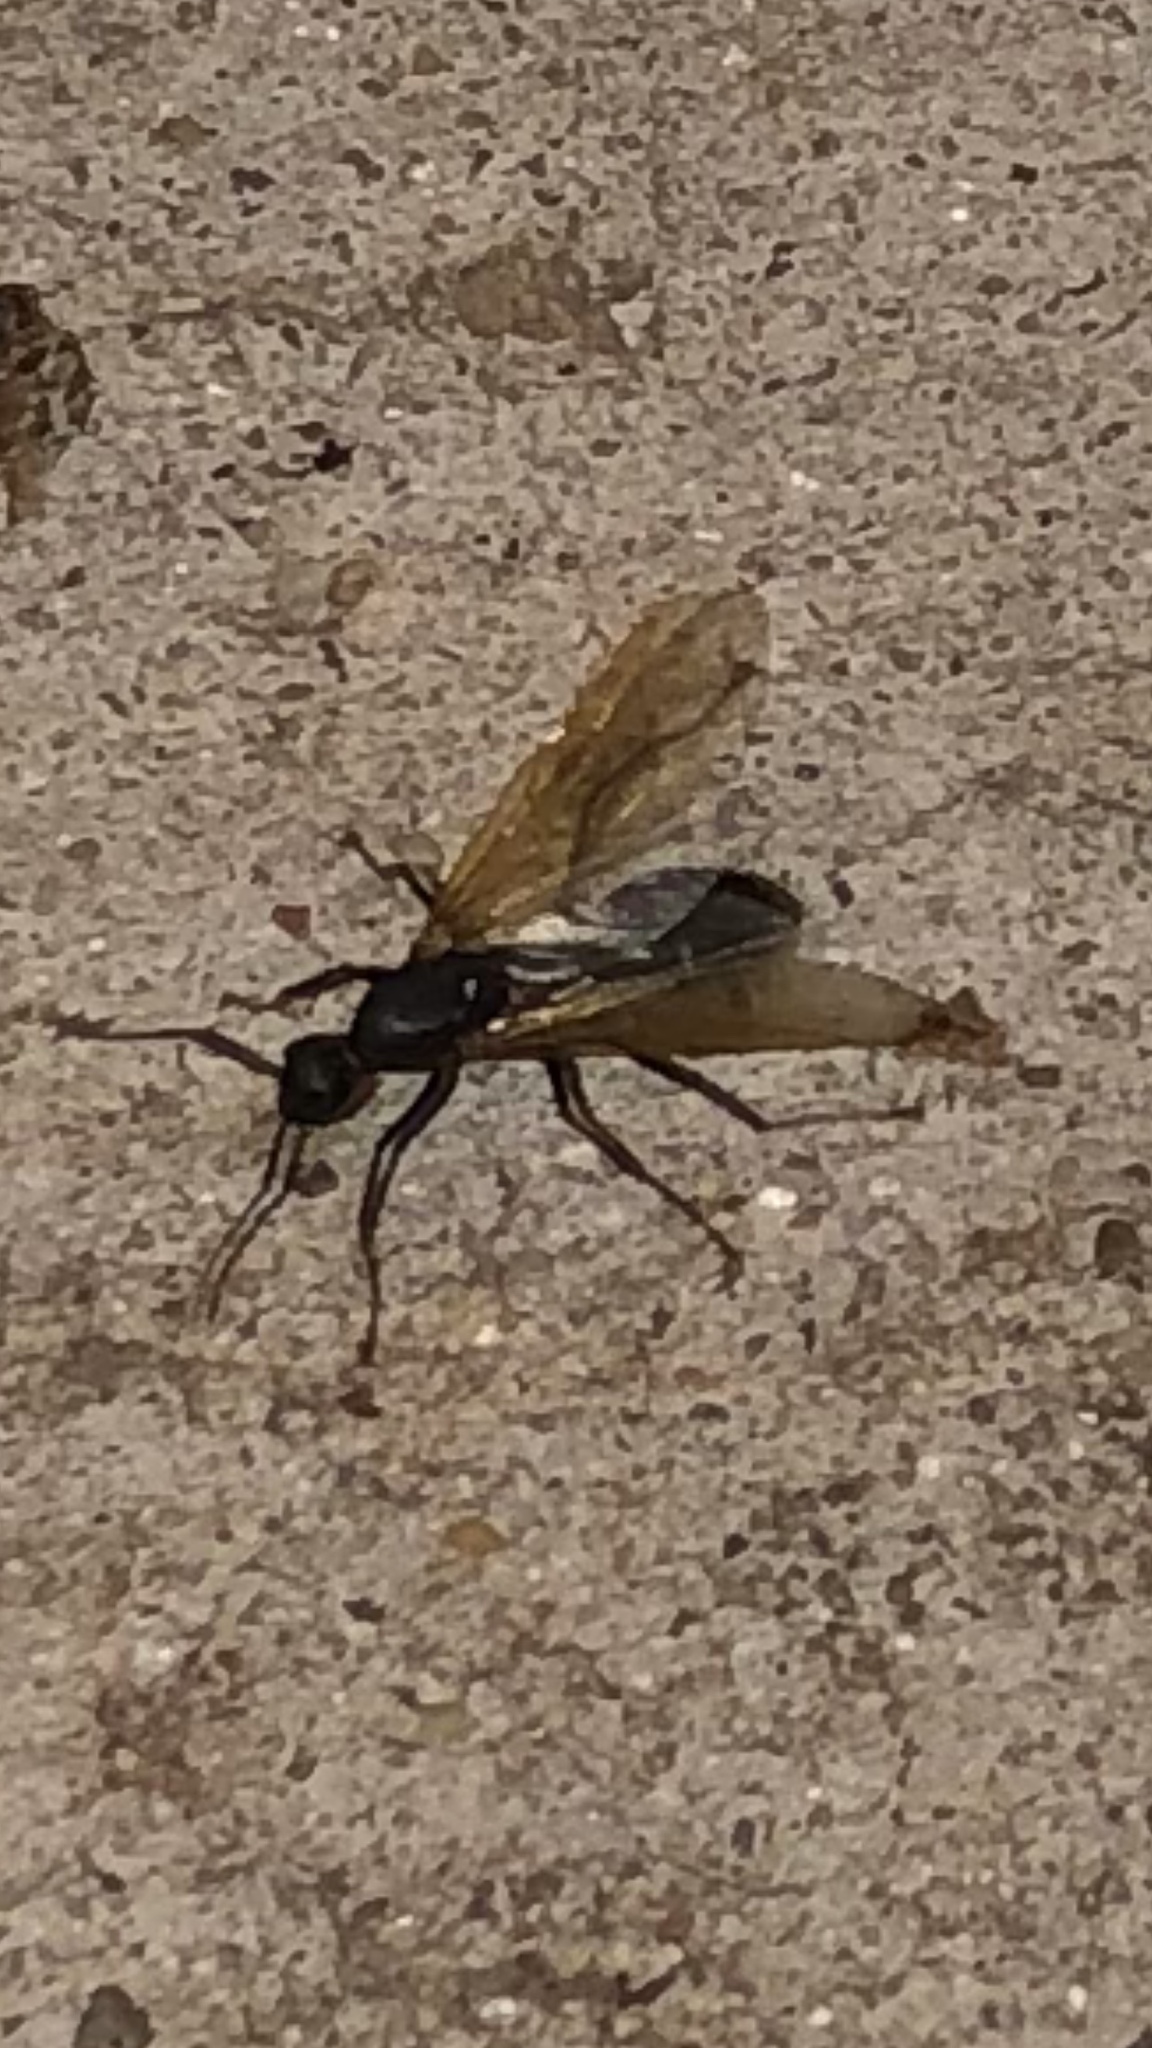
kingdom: Animalia
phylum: Arthropoda
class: Insecta
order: Hymenoptera
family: Formicidae
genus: Camponotus
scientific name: Camponotus pennsylvanicus
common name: Black carpenter ant
